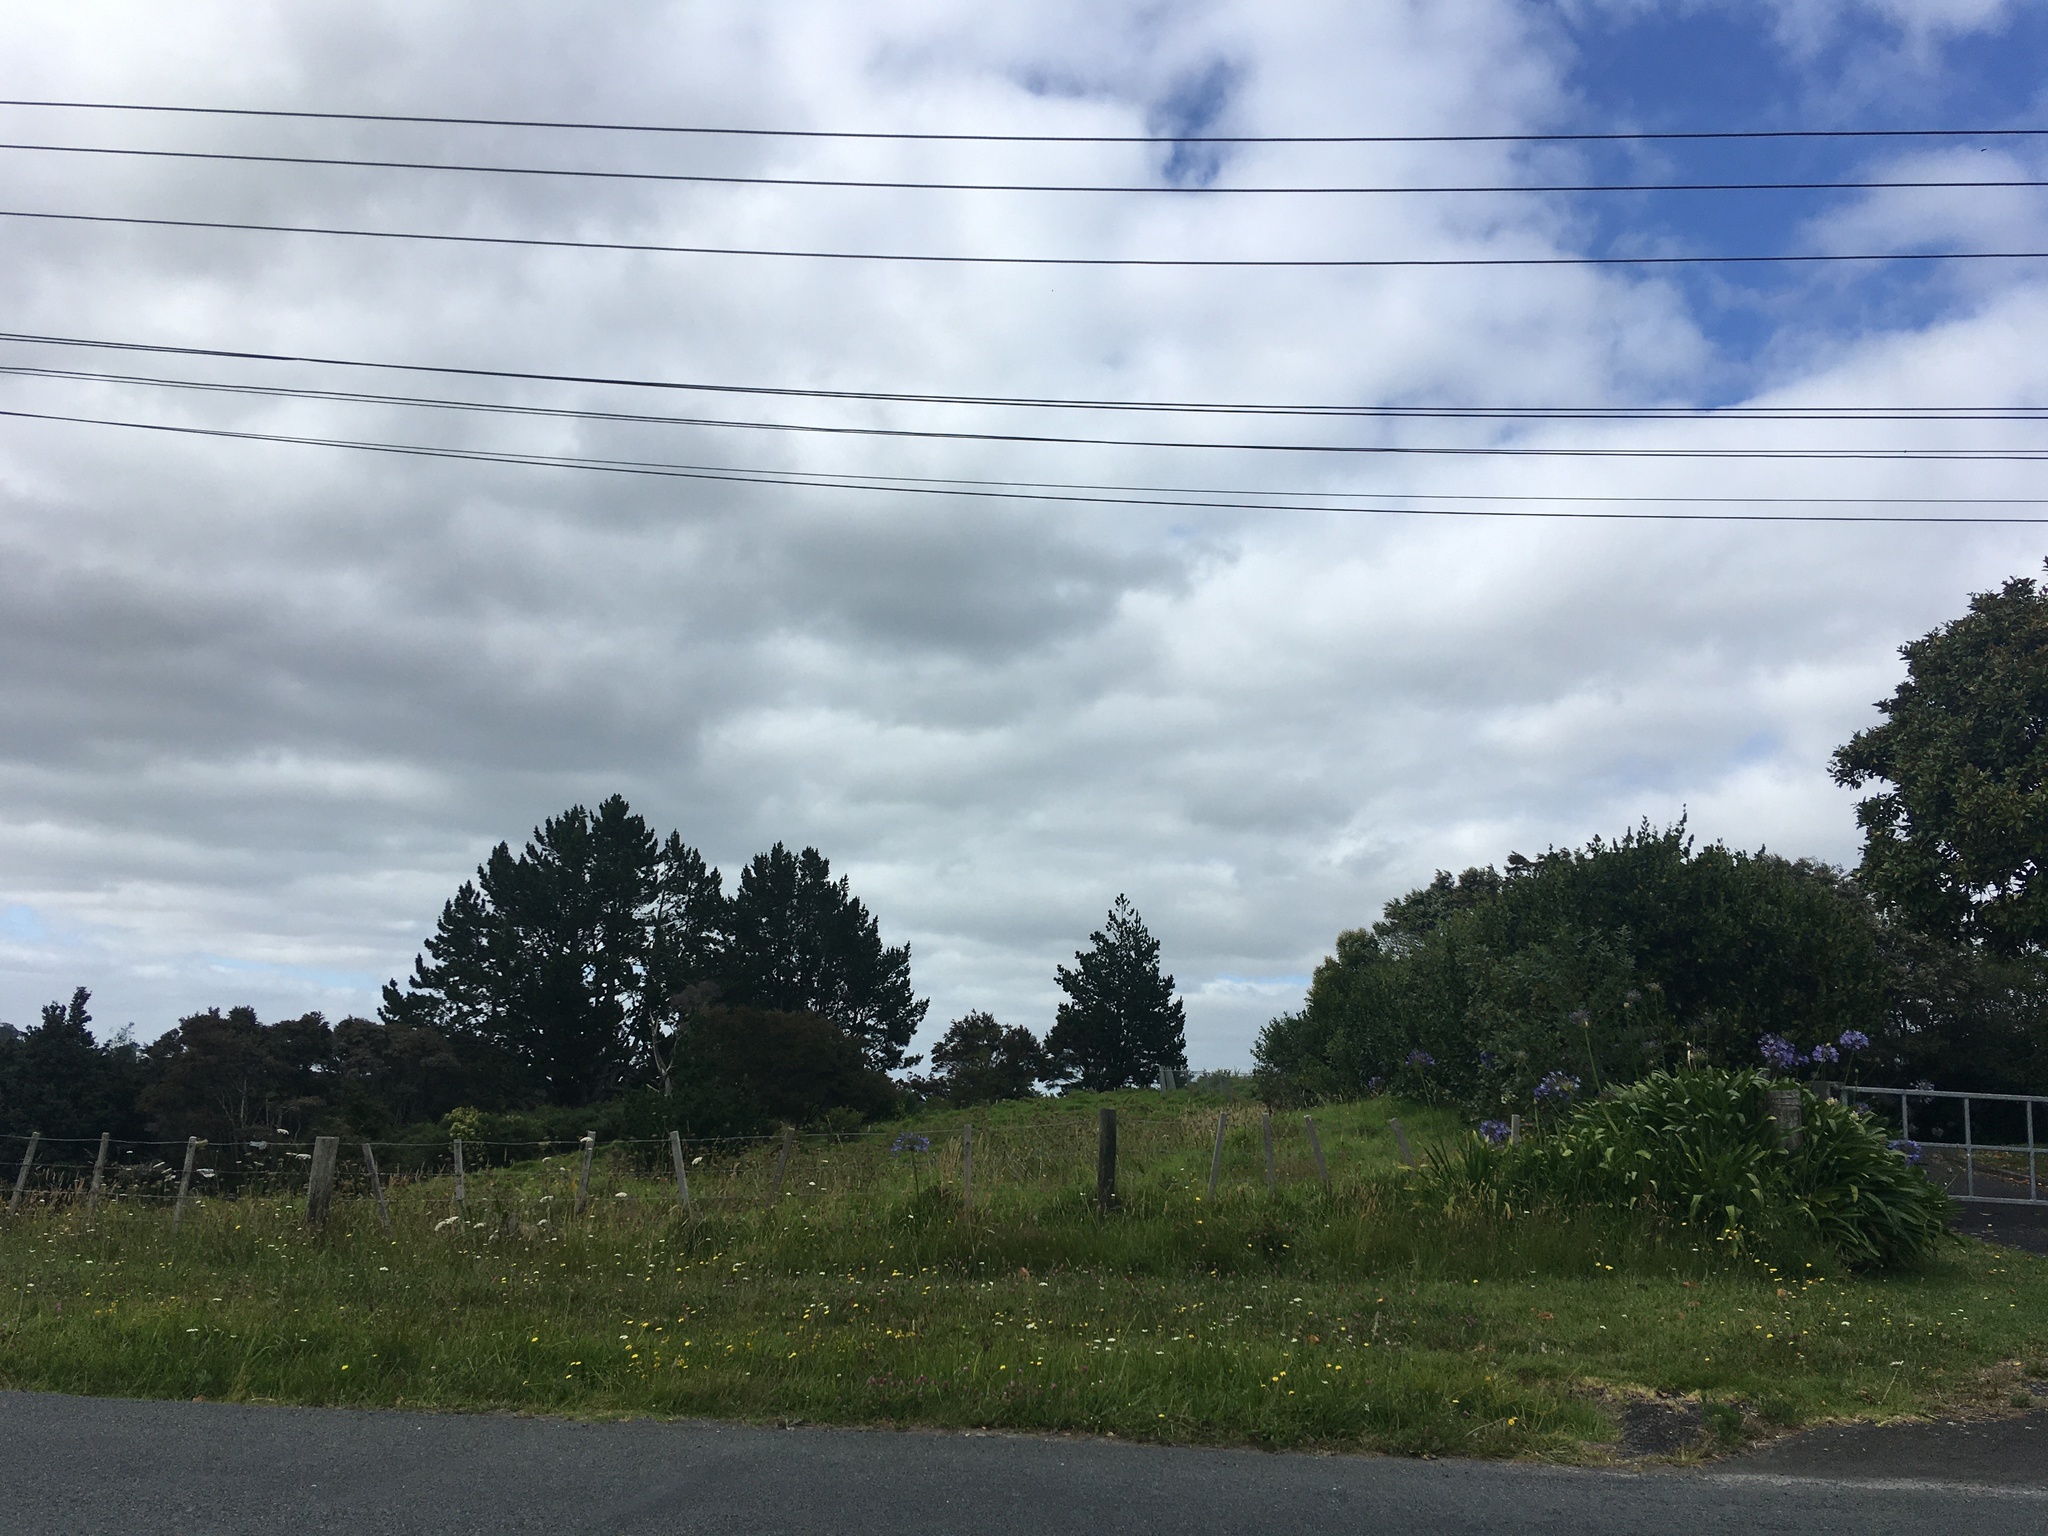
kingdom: Plantae
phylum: Tracheophyta
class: Liliopsida
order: Asparagales
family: Amaryllidaceae
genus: Agapanthus
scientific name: Agapanthus praecox
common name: African-lily
